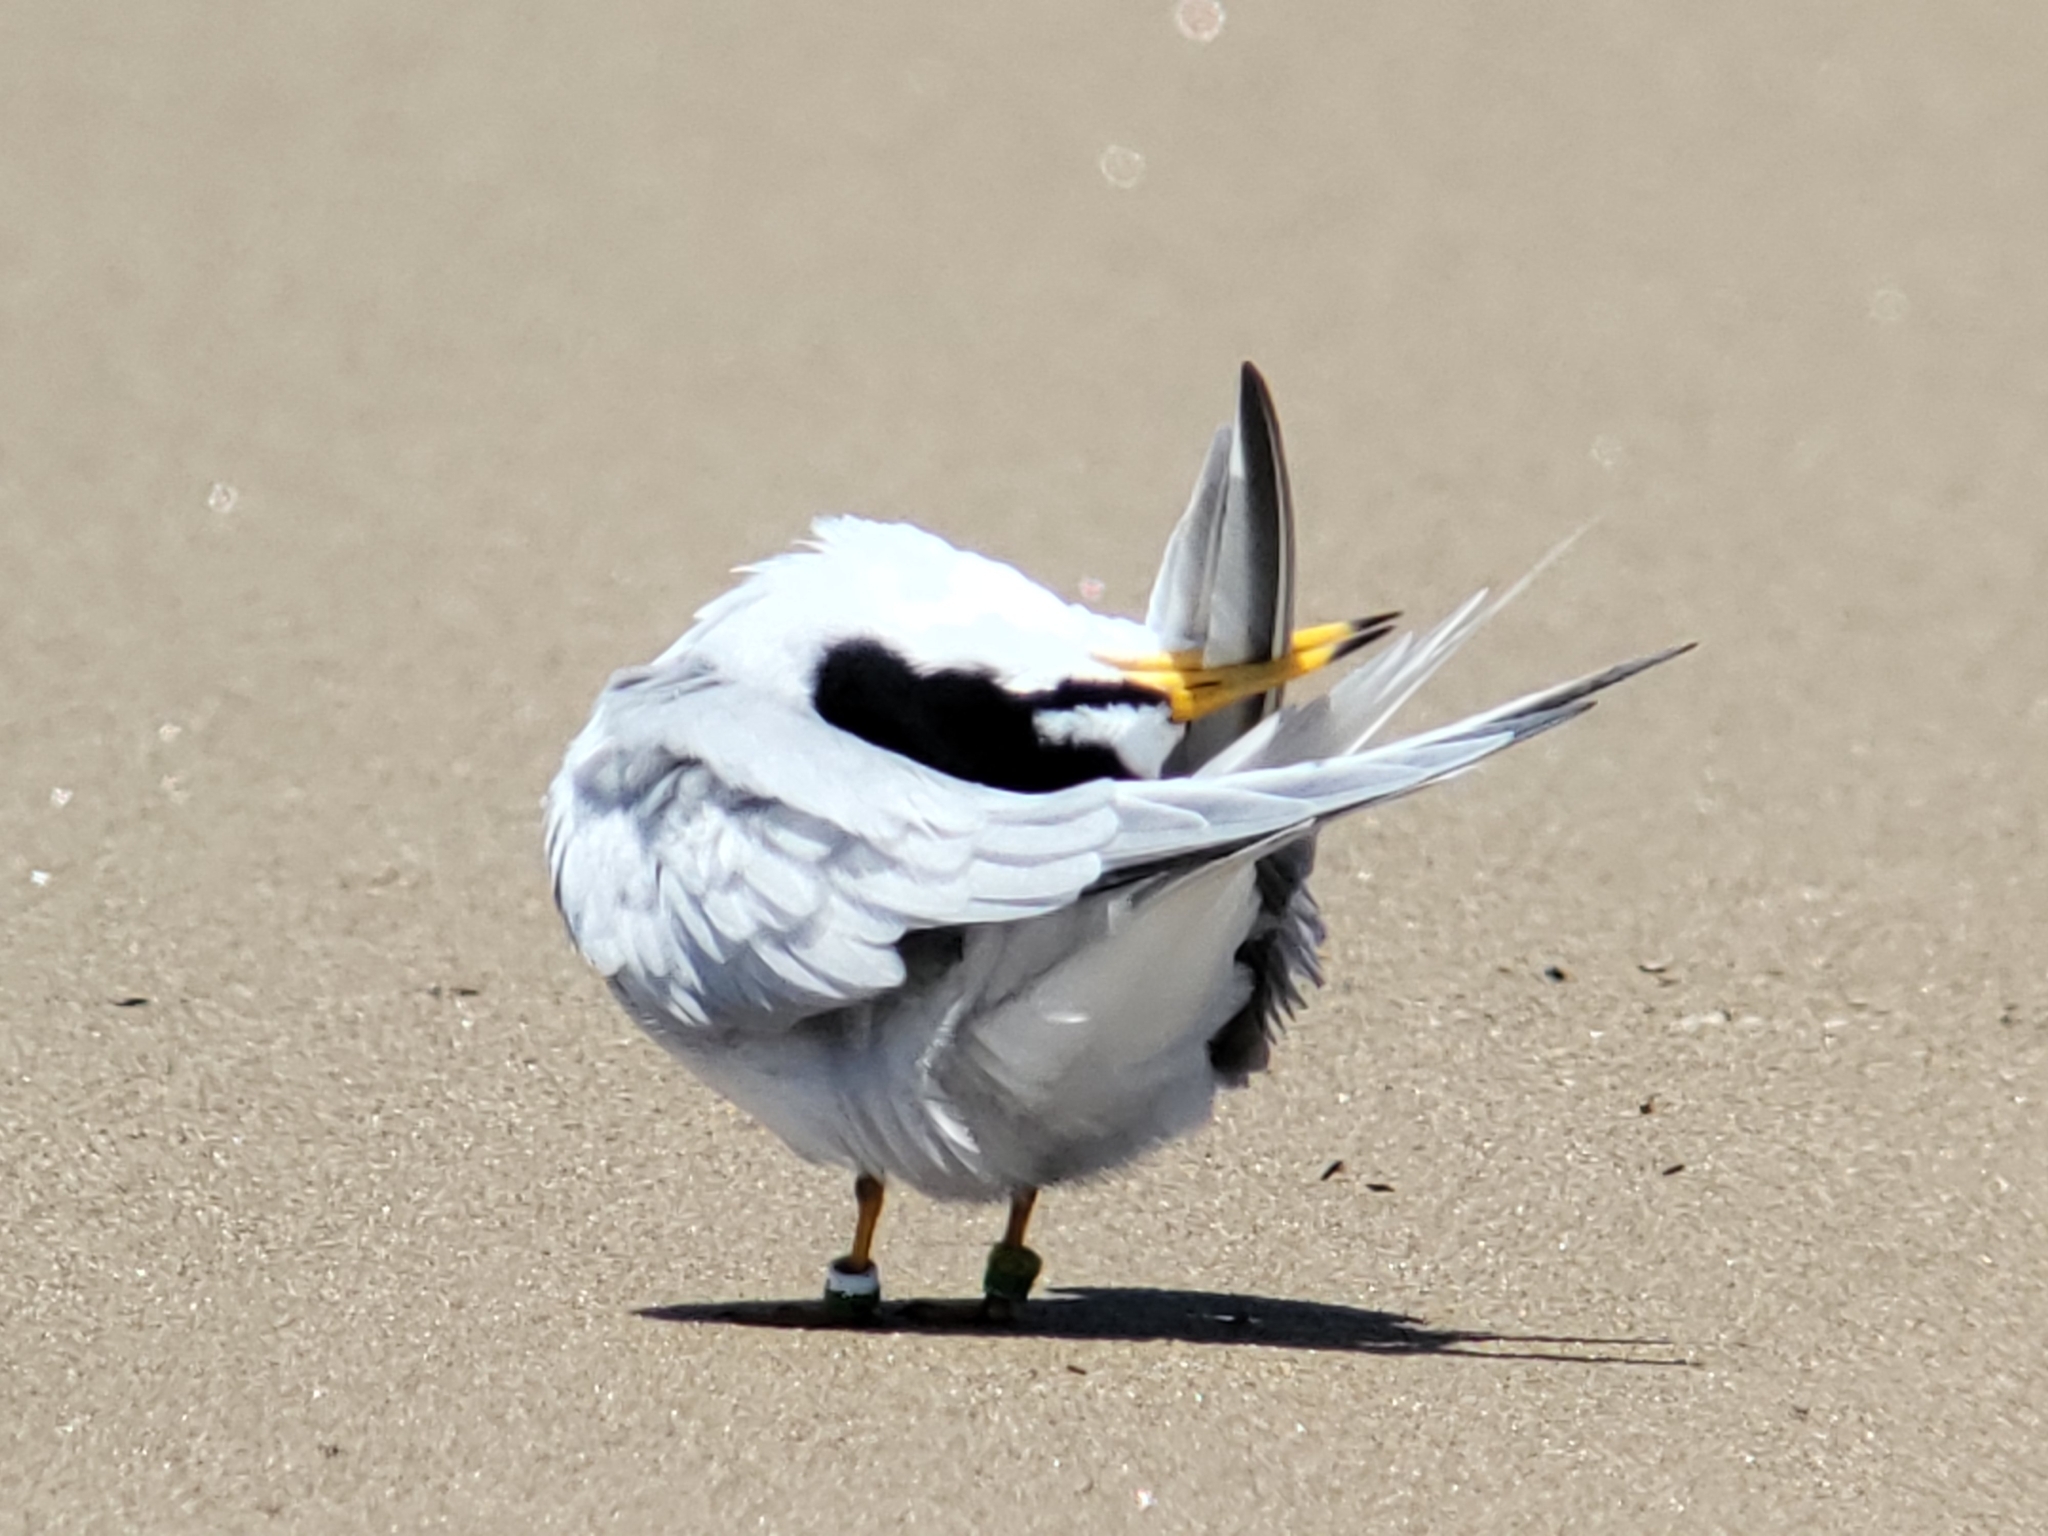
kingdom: Animalia
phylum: Chordata
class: Aves
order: Charadriiformes
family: Laridae
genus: Sternula
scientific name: Sternula antillarum
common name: Least tern
